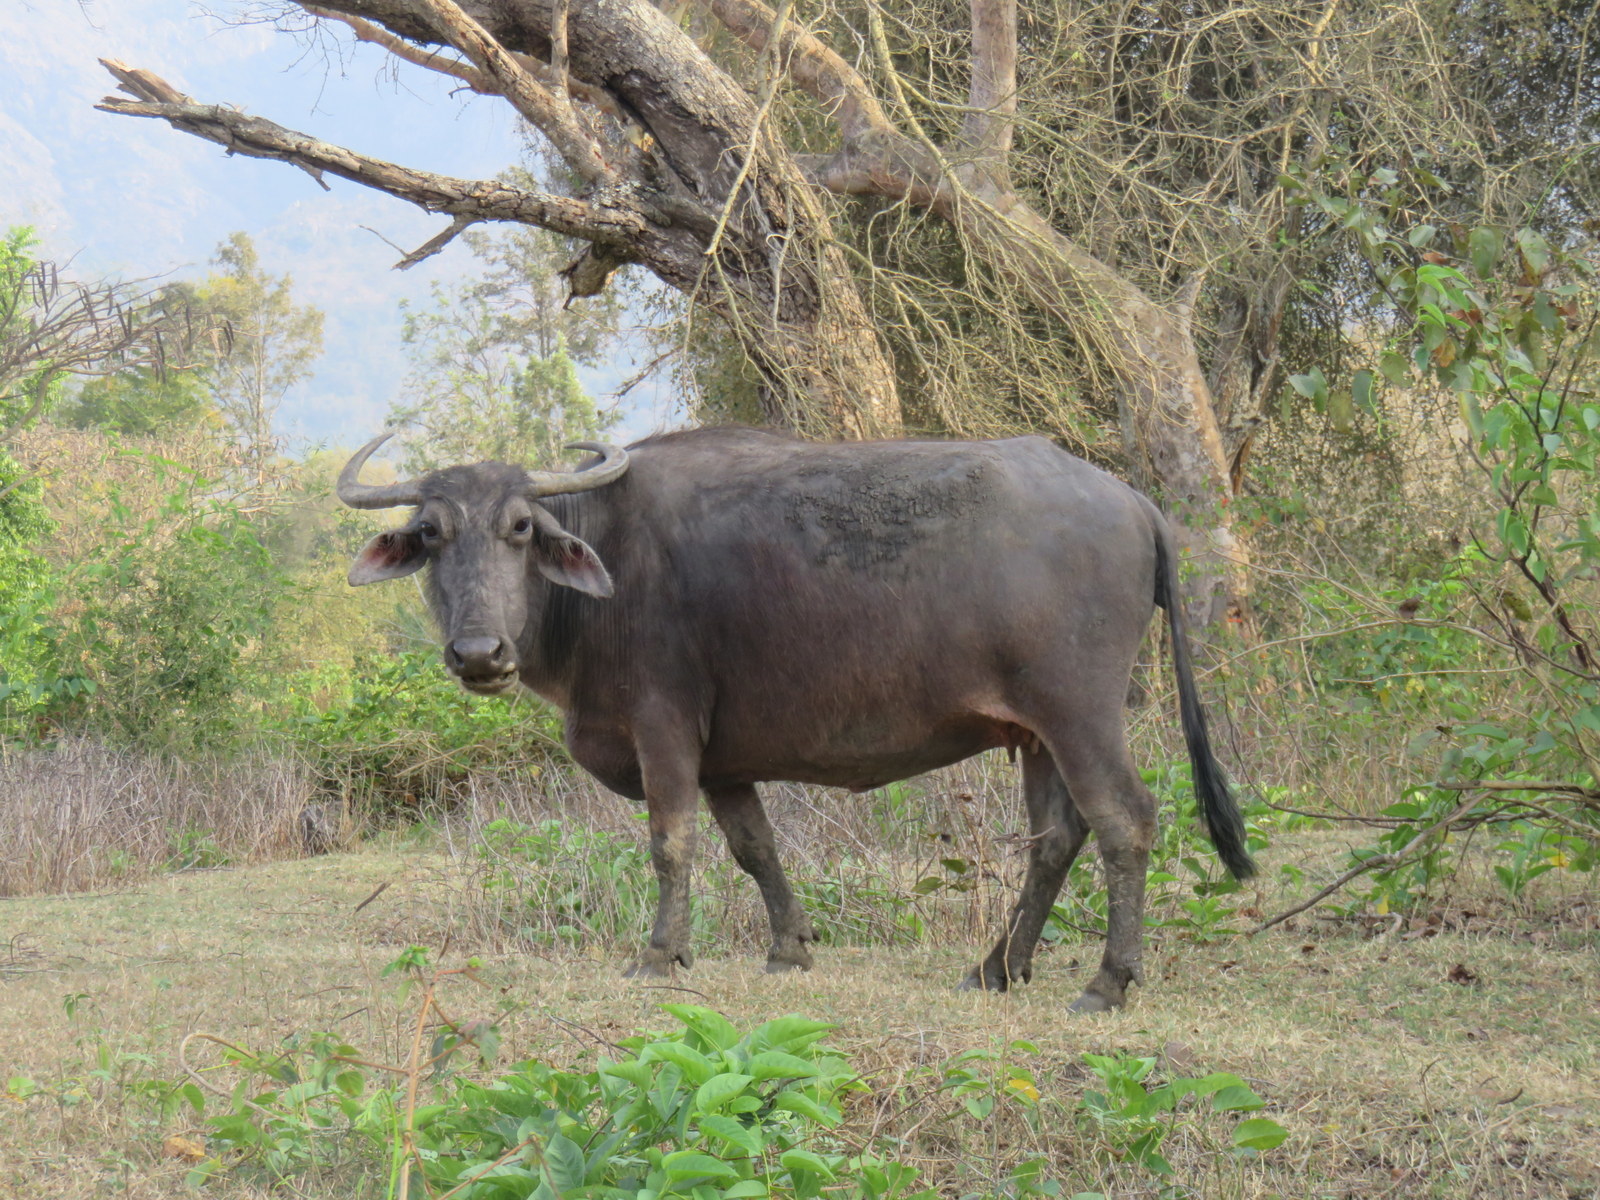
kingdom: Animalia
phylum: Chordata
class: Mammalia
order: Artiodactyla
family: Bovidae
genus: Bubalus
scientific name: Bubalus bubalis
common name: Water buffalo
